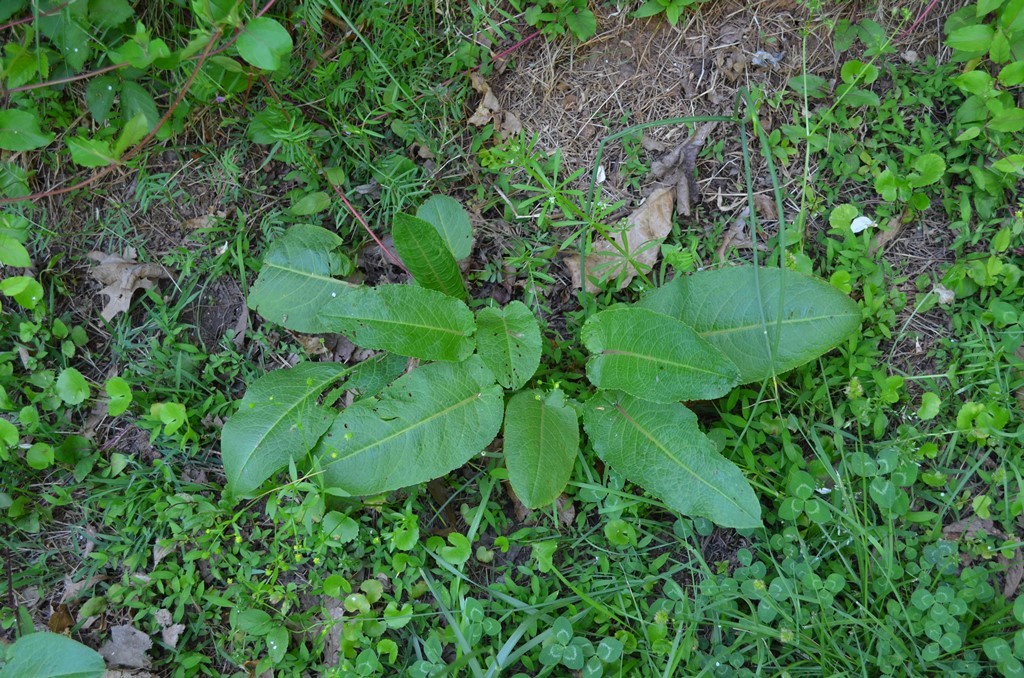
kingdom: Plantae
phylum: Tracheophyta
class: Magnoliopsida
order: Caryophyllales
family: Polygonaceae
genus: Rumex
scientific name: Rumex obtusifolius
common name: Bitter dock
